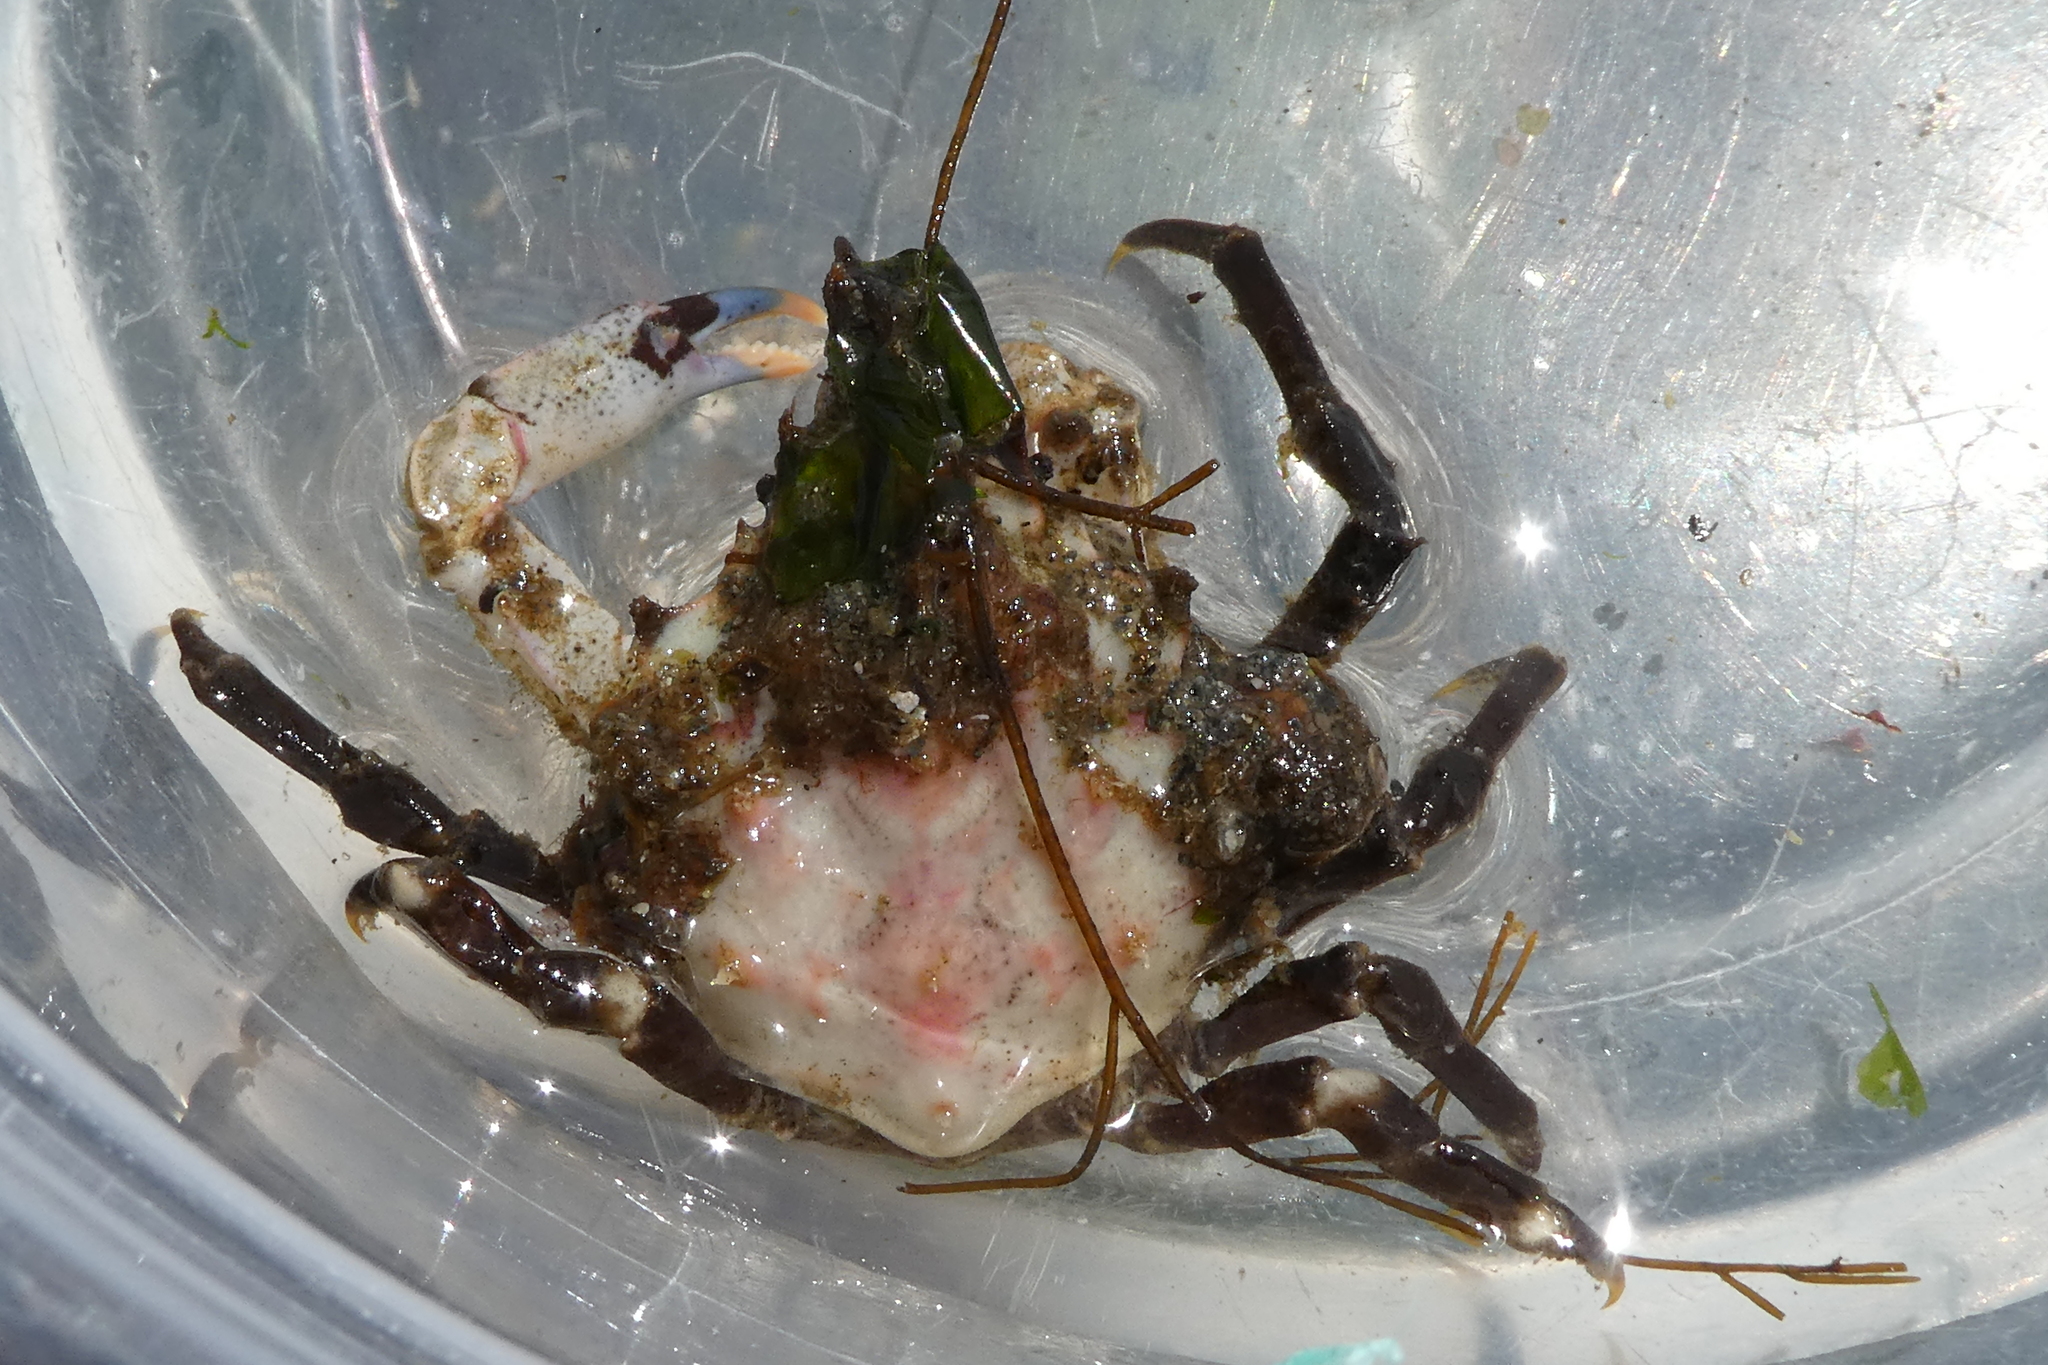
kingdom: Animalia
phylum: Arthropoda
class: Malacostraca
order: Decapoda
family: Epialtidae
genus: Pugettia
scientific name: Pugettia gracilis
